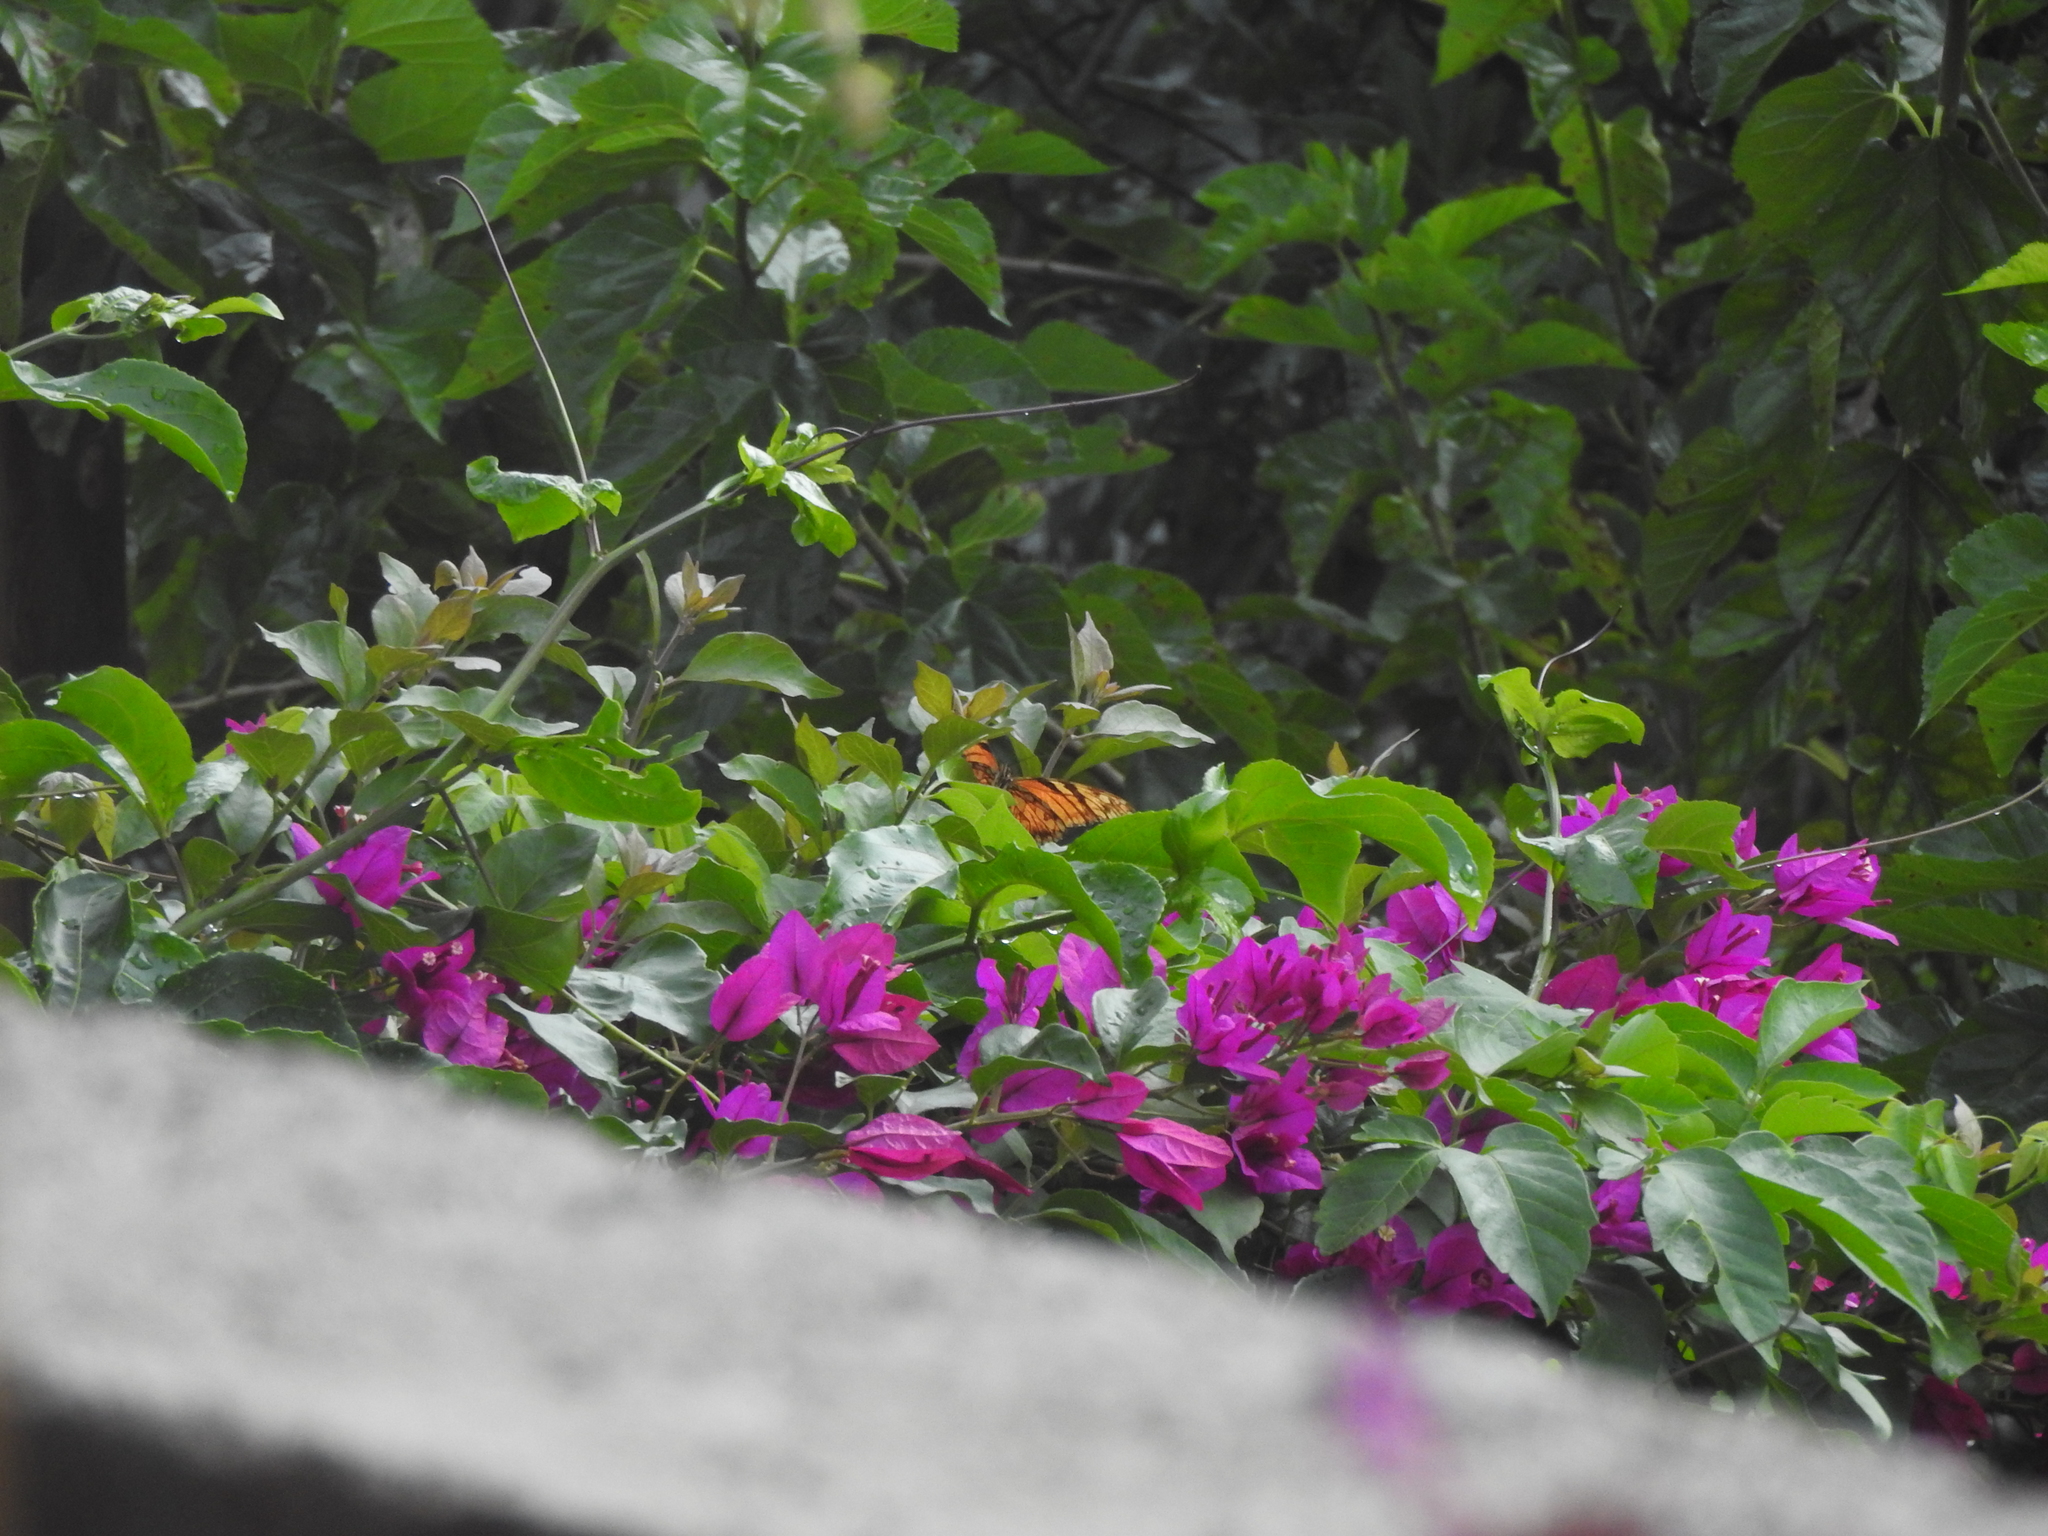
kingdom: Animalia
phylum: Arthropoda
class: Insecta
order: Lepidoptera
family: Nymphalidae
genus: Dione
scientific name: Dione juno
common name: Juno silverspot
